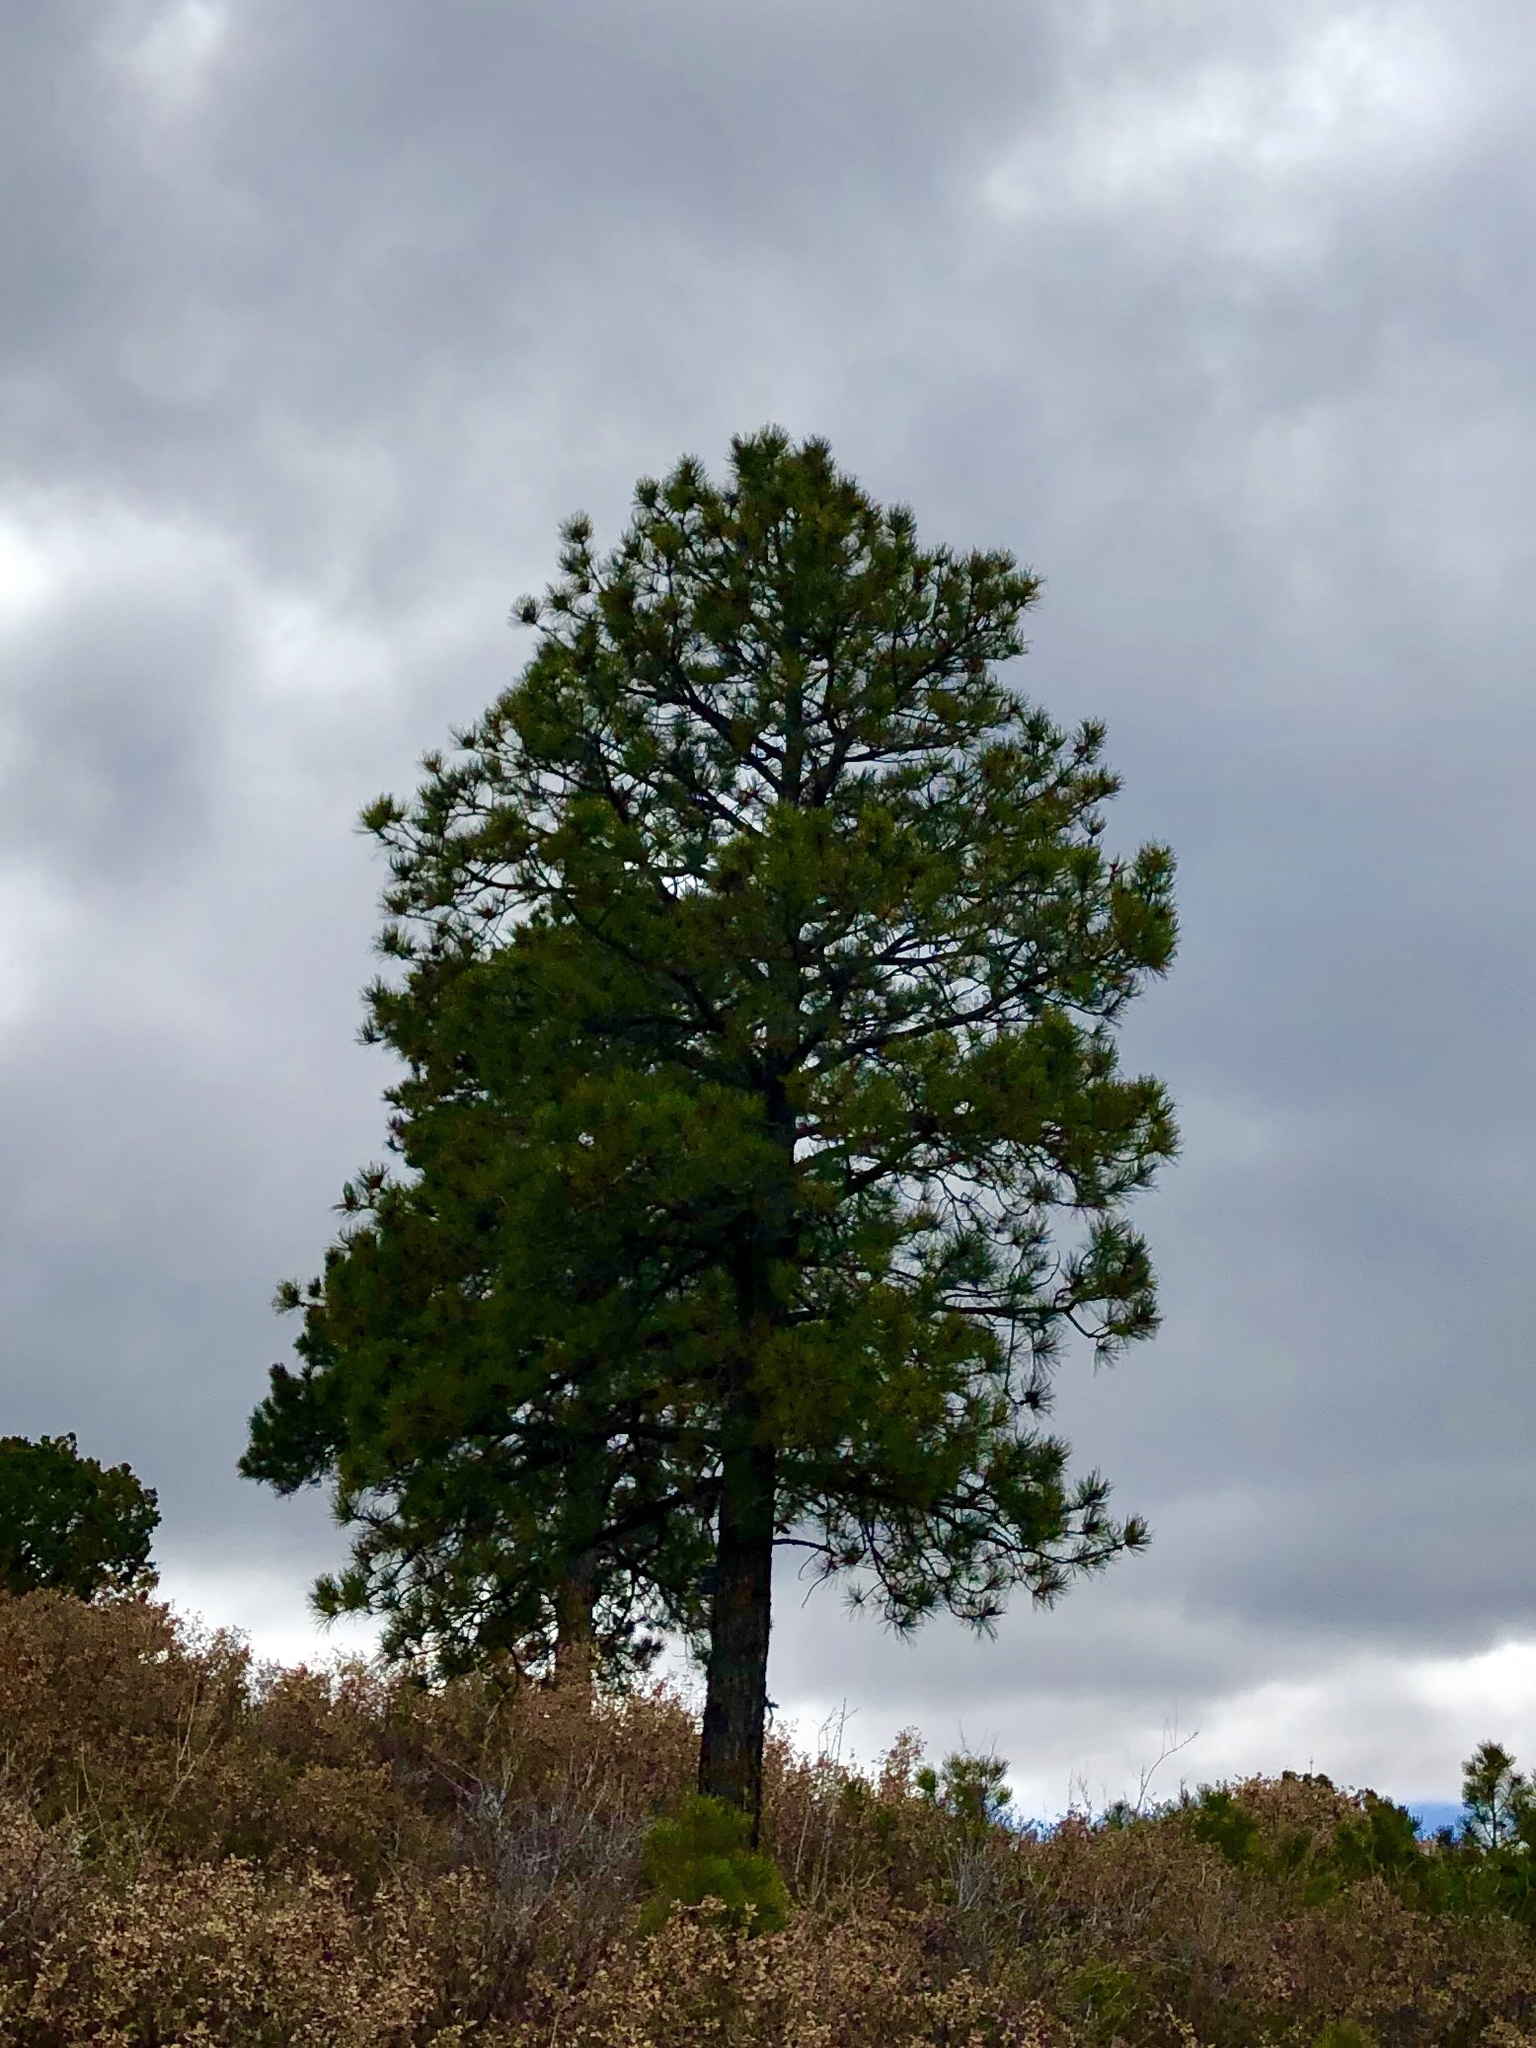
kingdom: Plantae
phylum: Tracheophyta
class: Pinopsida
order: Pinales
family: Pinaceae
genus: Pinus
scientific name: Pinus ponderosa
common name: Western yellow-pine
